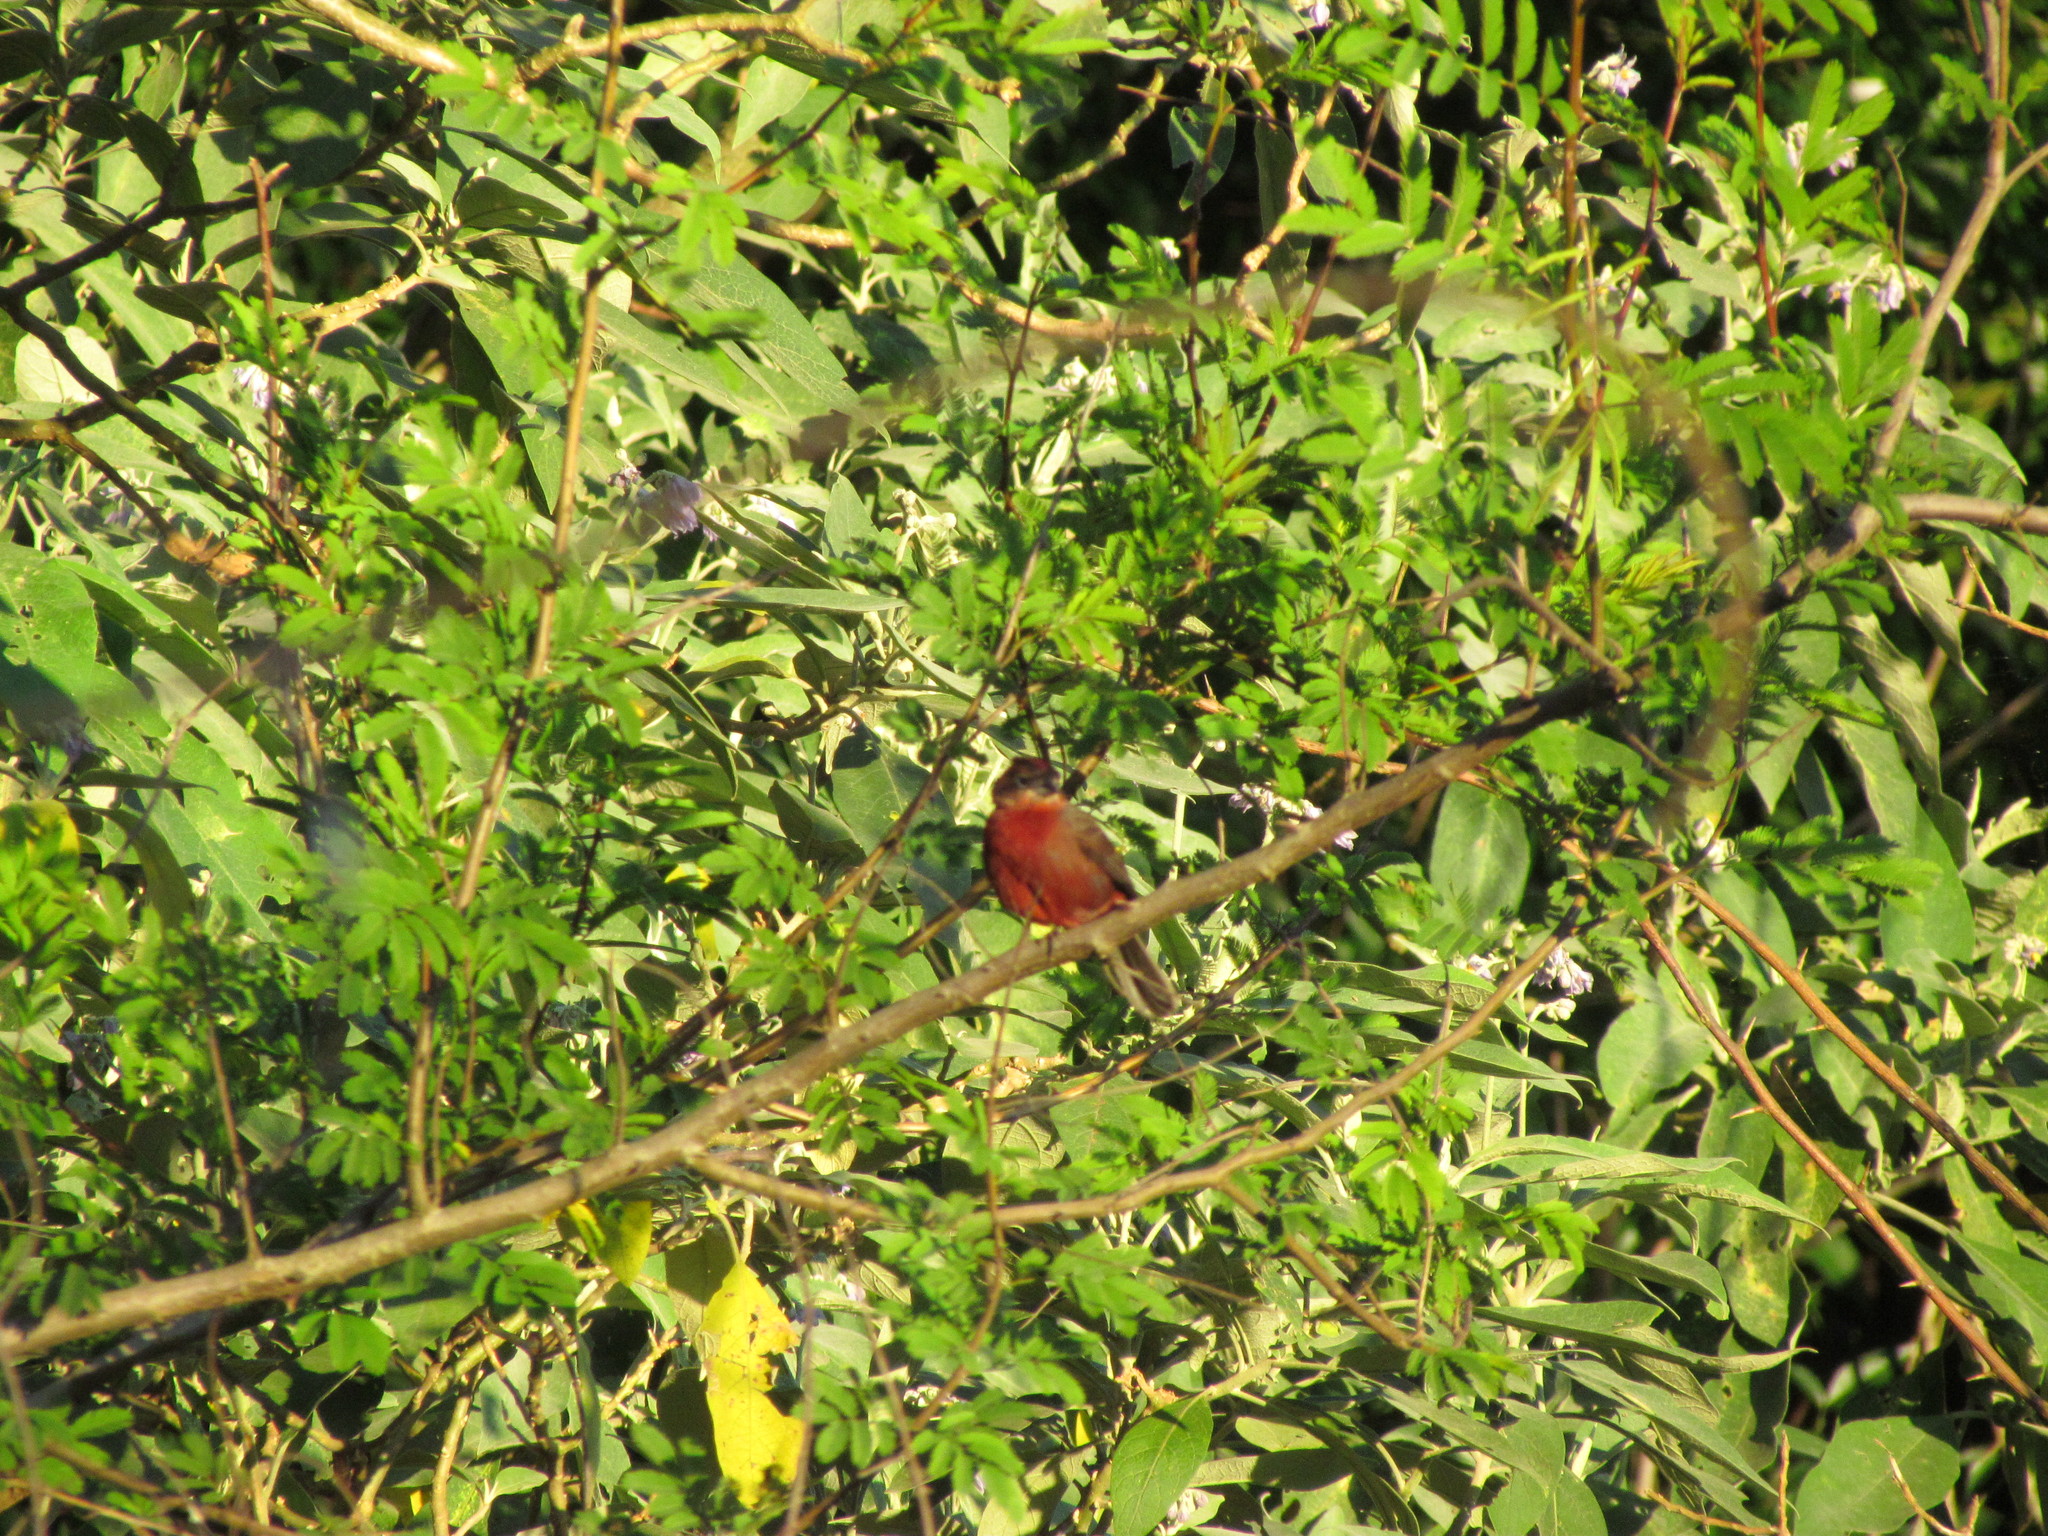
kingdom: Animalia
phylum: Chordata
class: Aves
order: Passeriformes
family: Thraupidae
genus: Coryphospingus
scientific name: Coryphospingus cucullatus
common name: Red pileated finch
